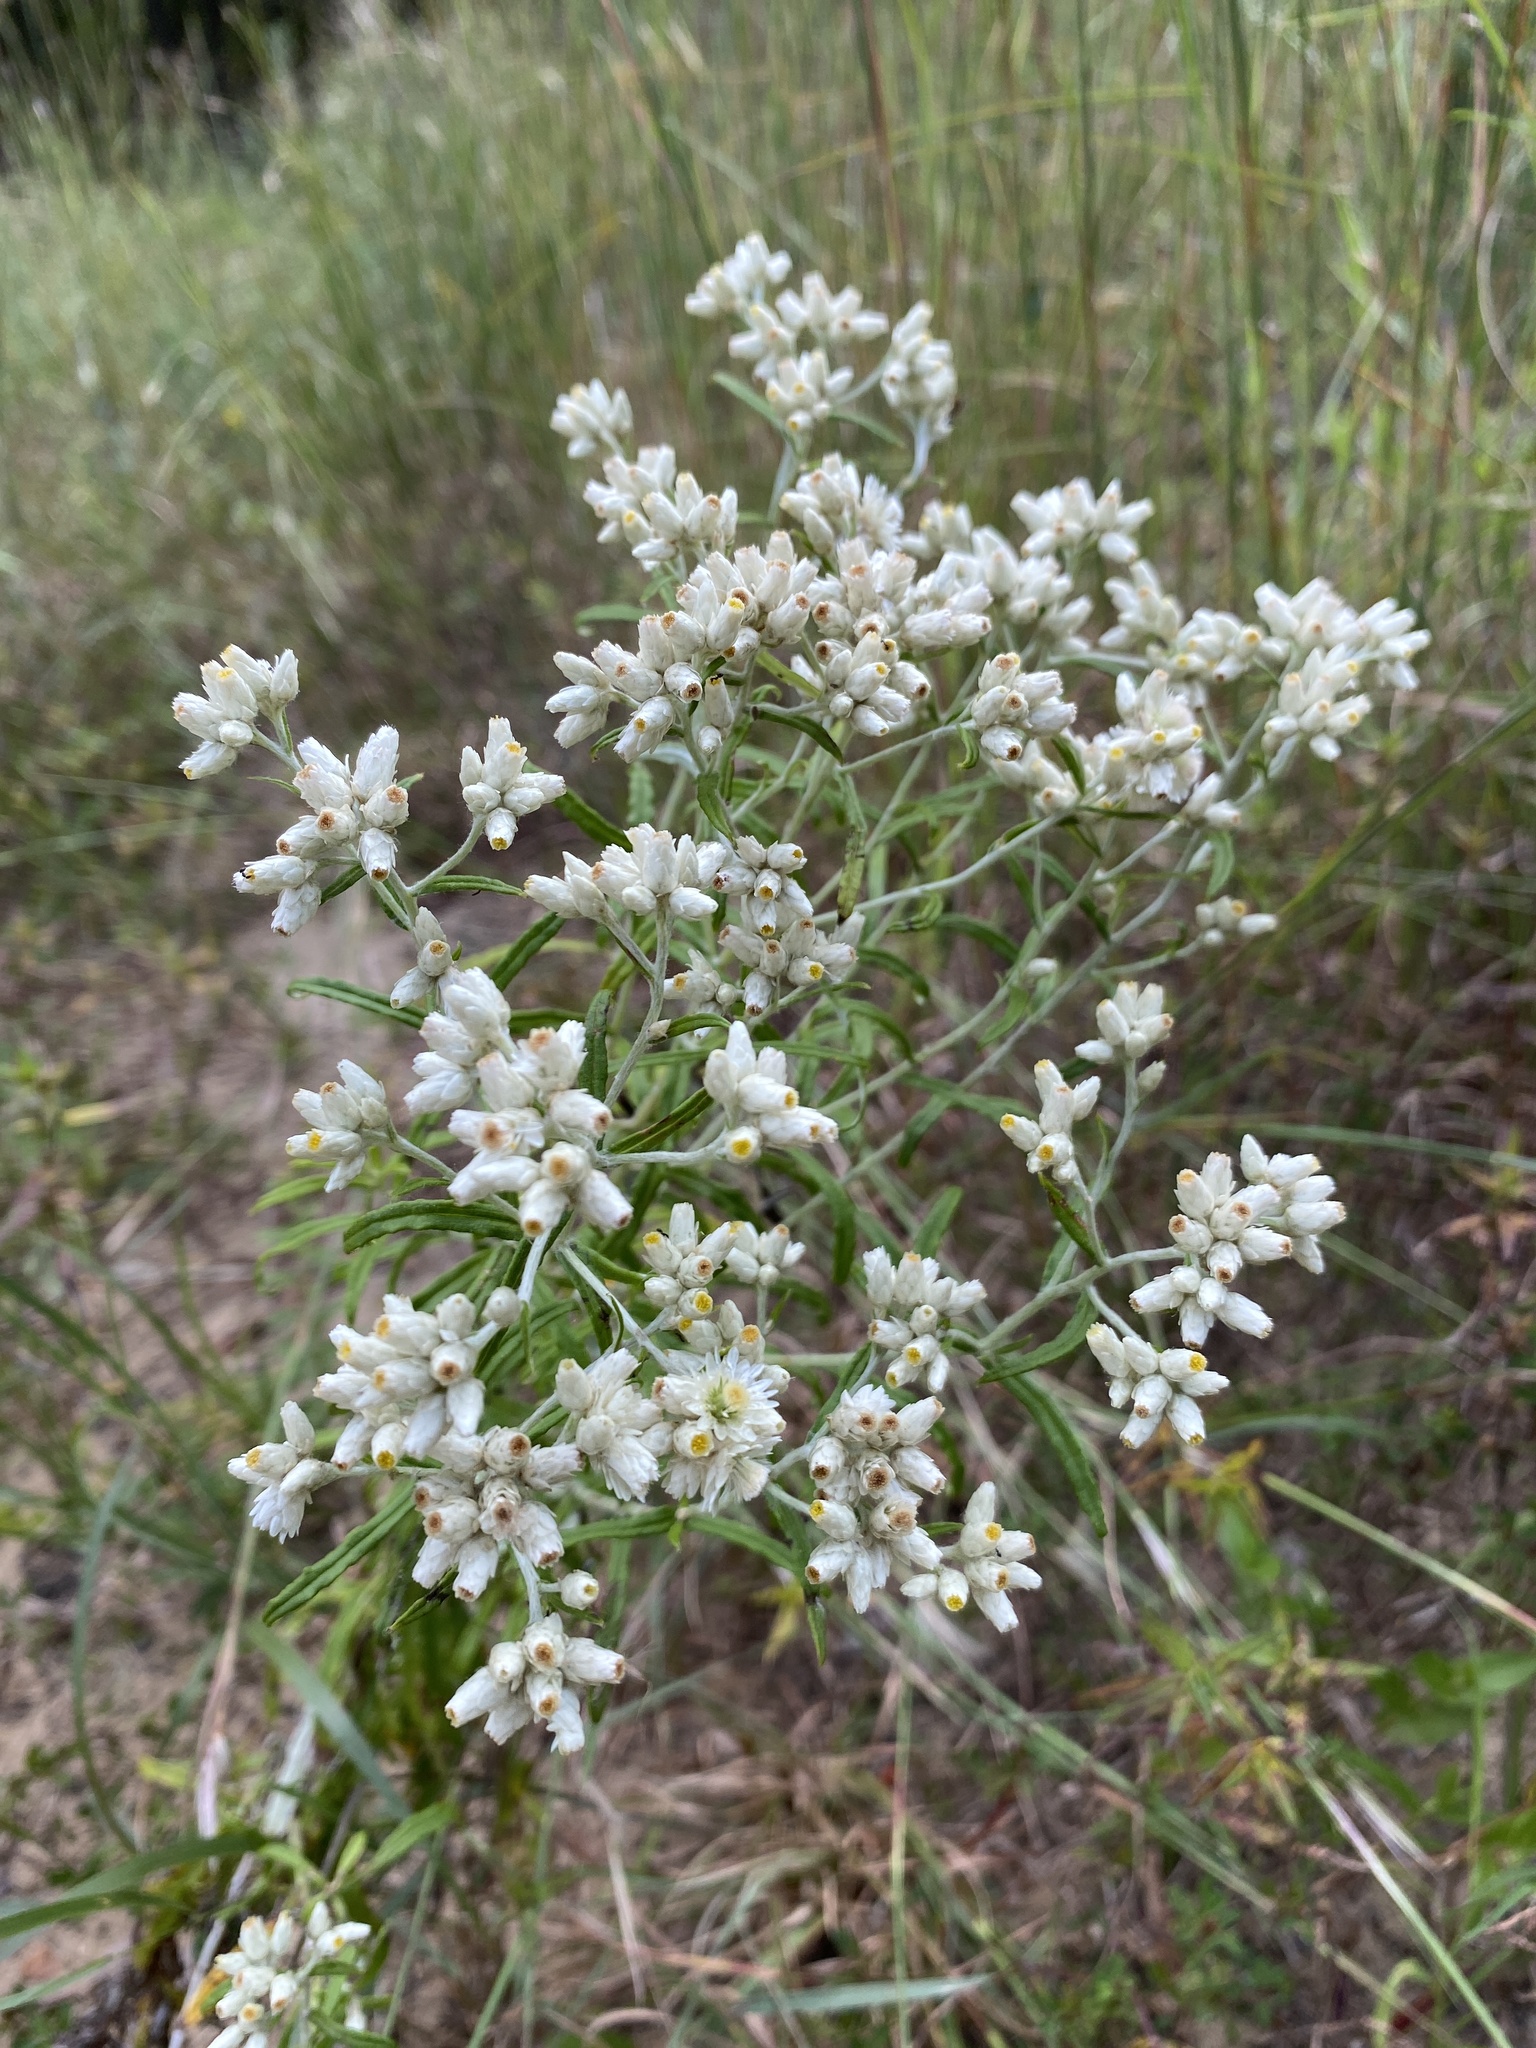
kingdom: Plantae
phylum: Tracheophyta
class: Magnoliopsida
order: Asterales
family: Asteraceae
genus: Pseudognaphalium
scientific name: Pseudognaphalium obtusifolium
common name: Eastern rabbit-tobacco
